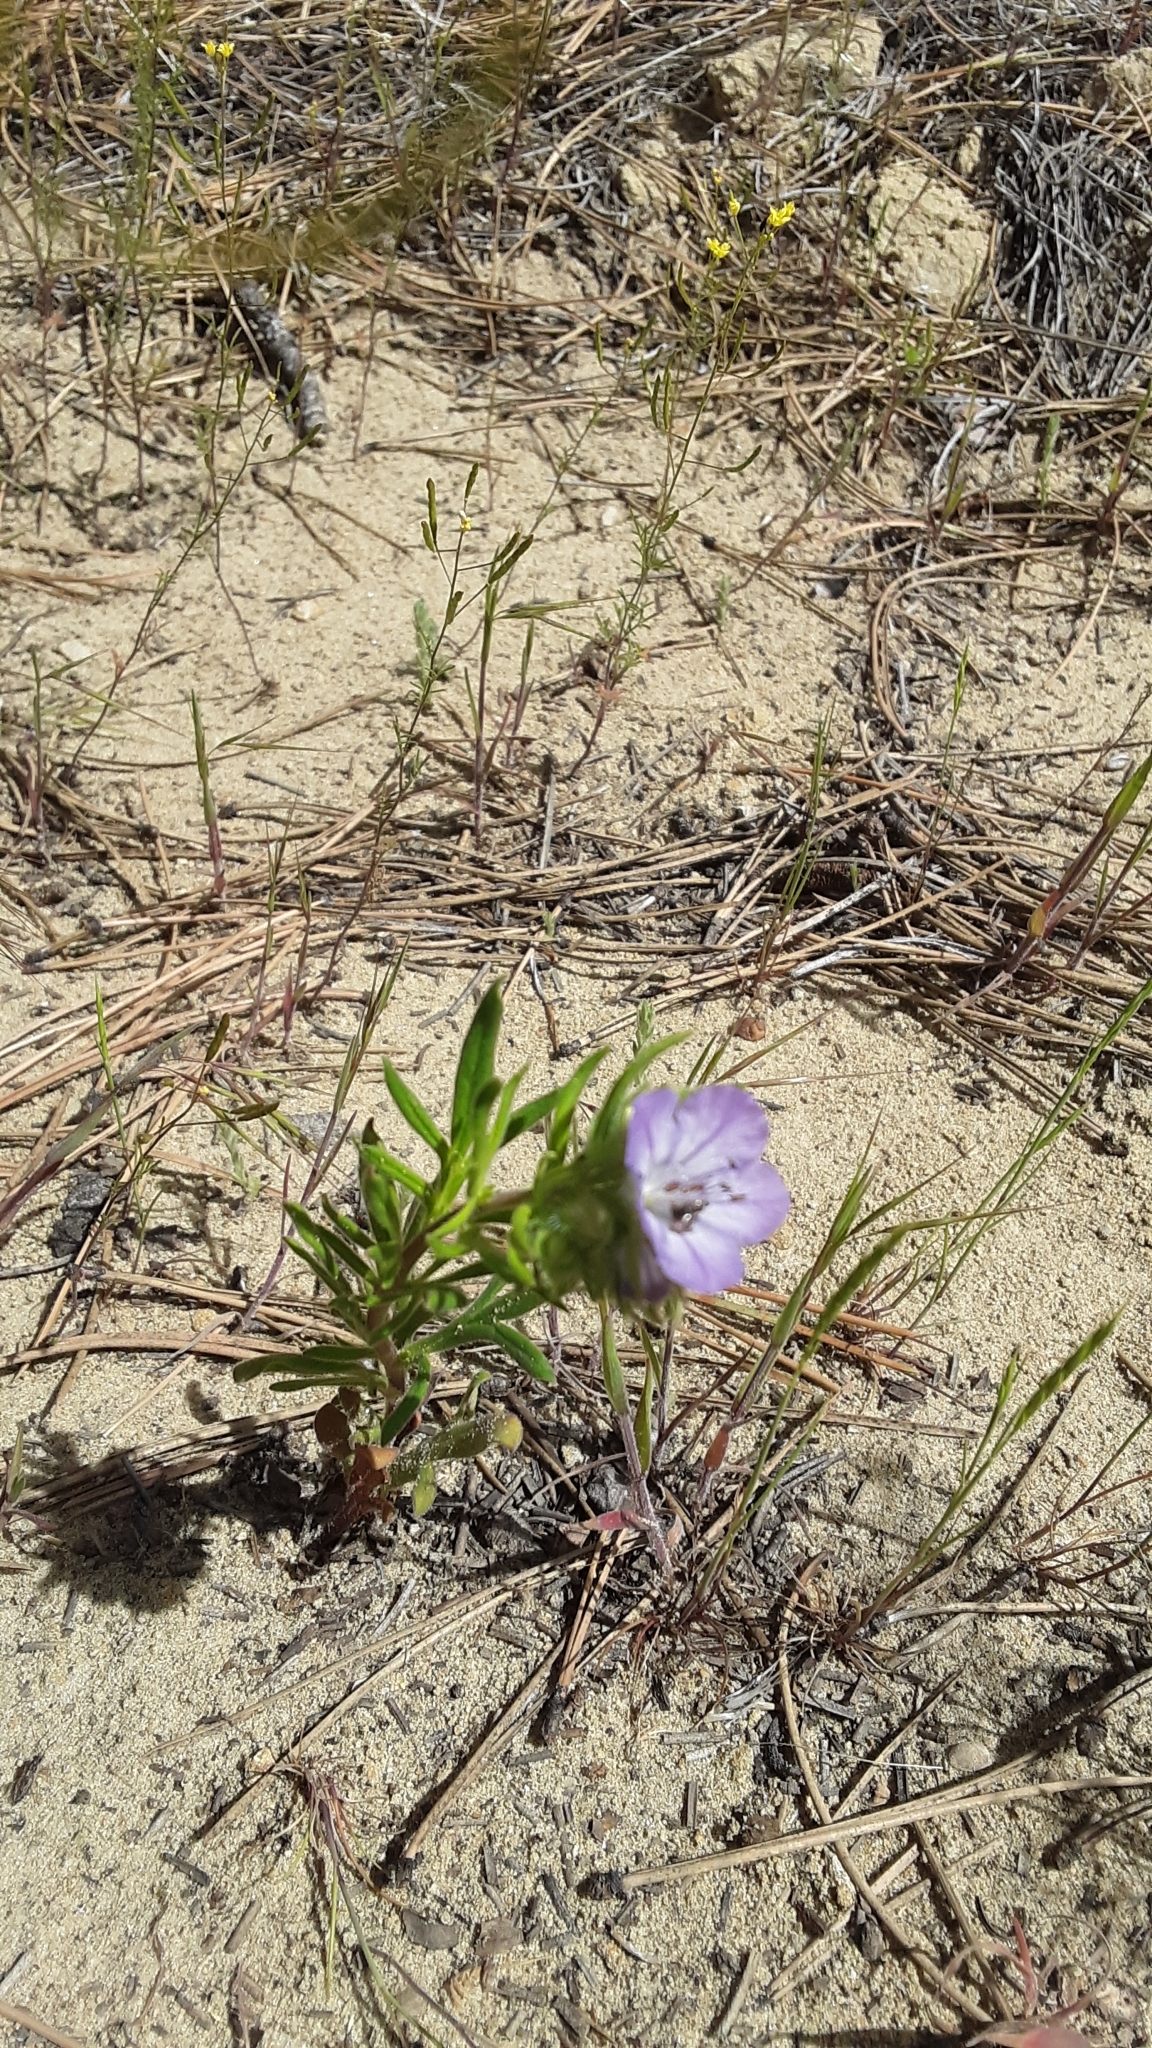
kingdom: Plantae
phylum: Tracheophyta
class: Magnoliopsida
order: Boraginales
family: Hydrophyllaceae
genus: Phacelia
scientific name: Phacelia linearis
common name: Linear-leaved phacelia
